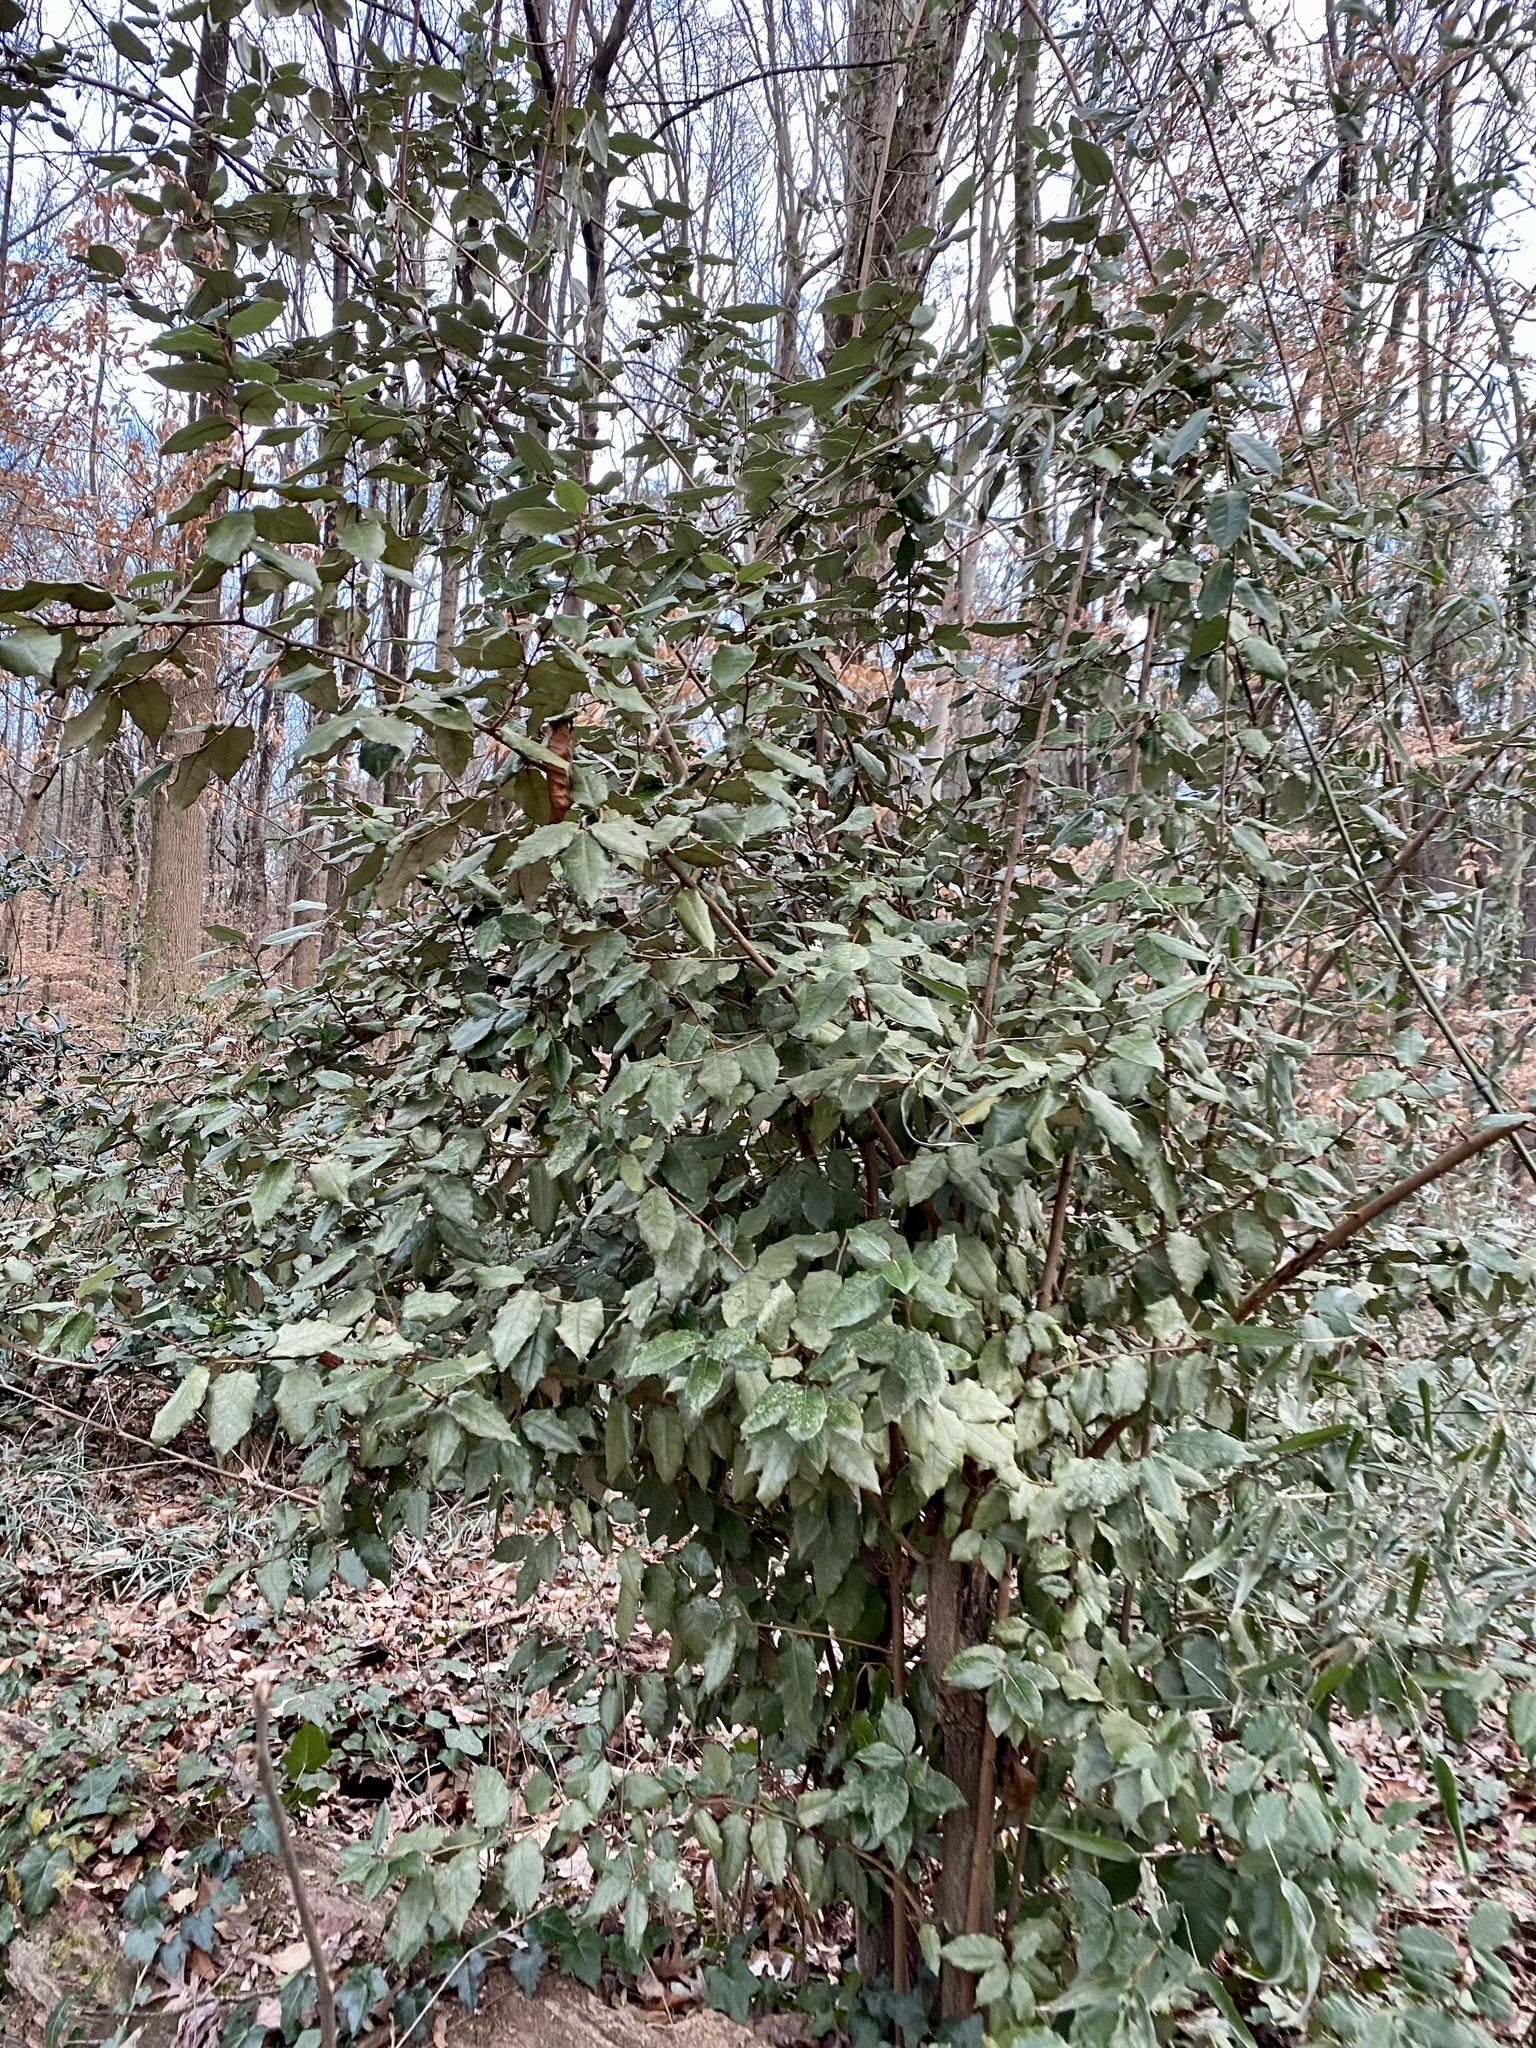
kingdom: Plantae
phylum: Tracheophyta
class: Magnoliopsida
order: Rosales
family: Elaeagnaceae
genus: Elaeagnus
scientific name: Elaeagnus pungens
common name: Spiny oleaster
